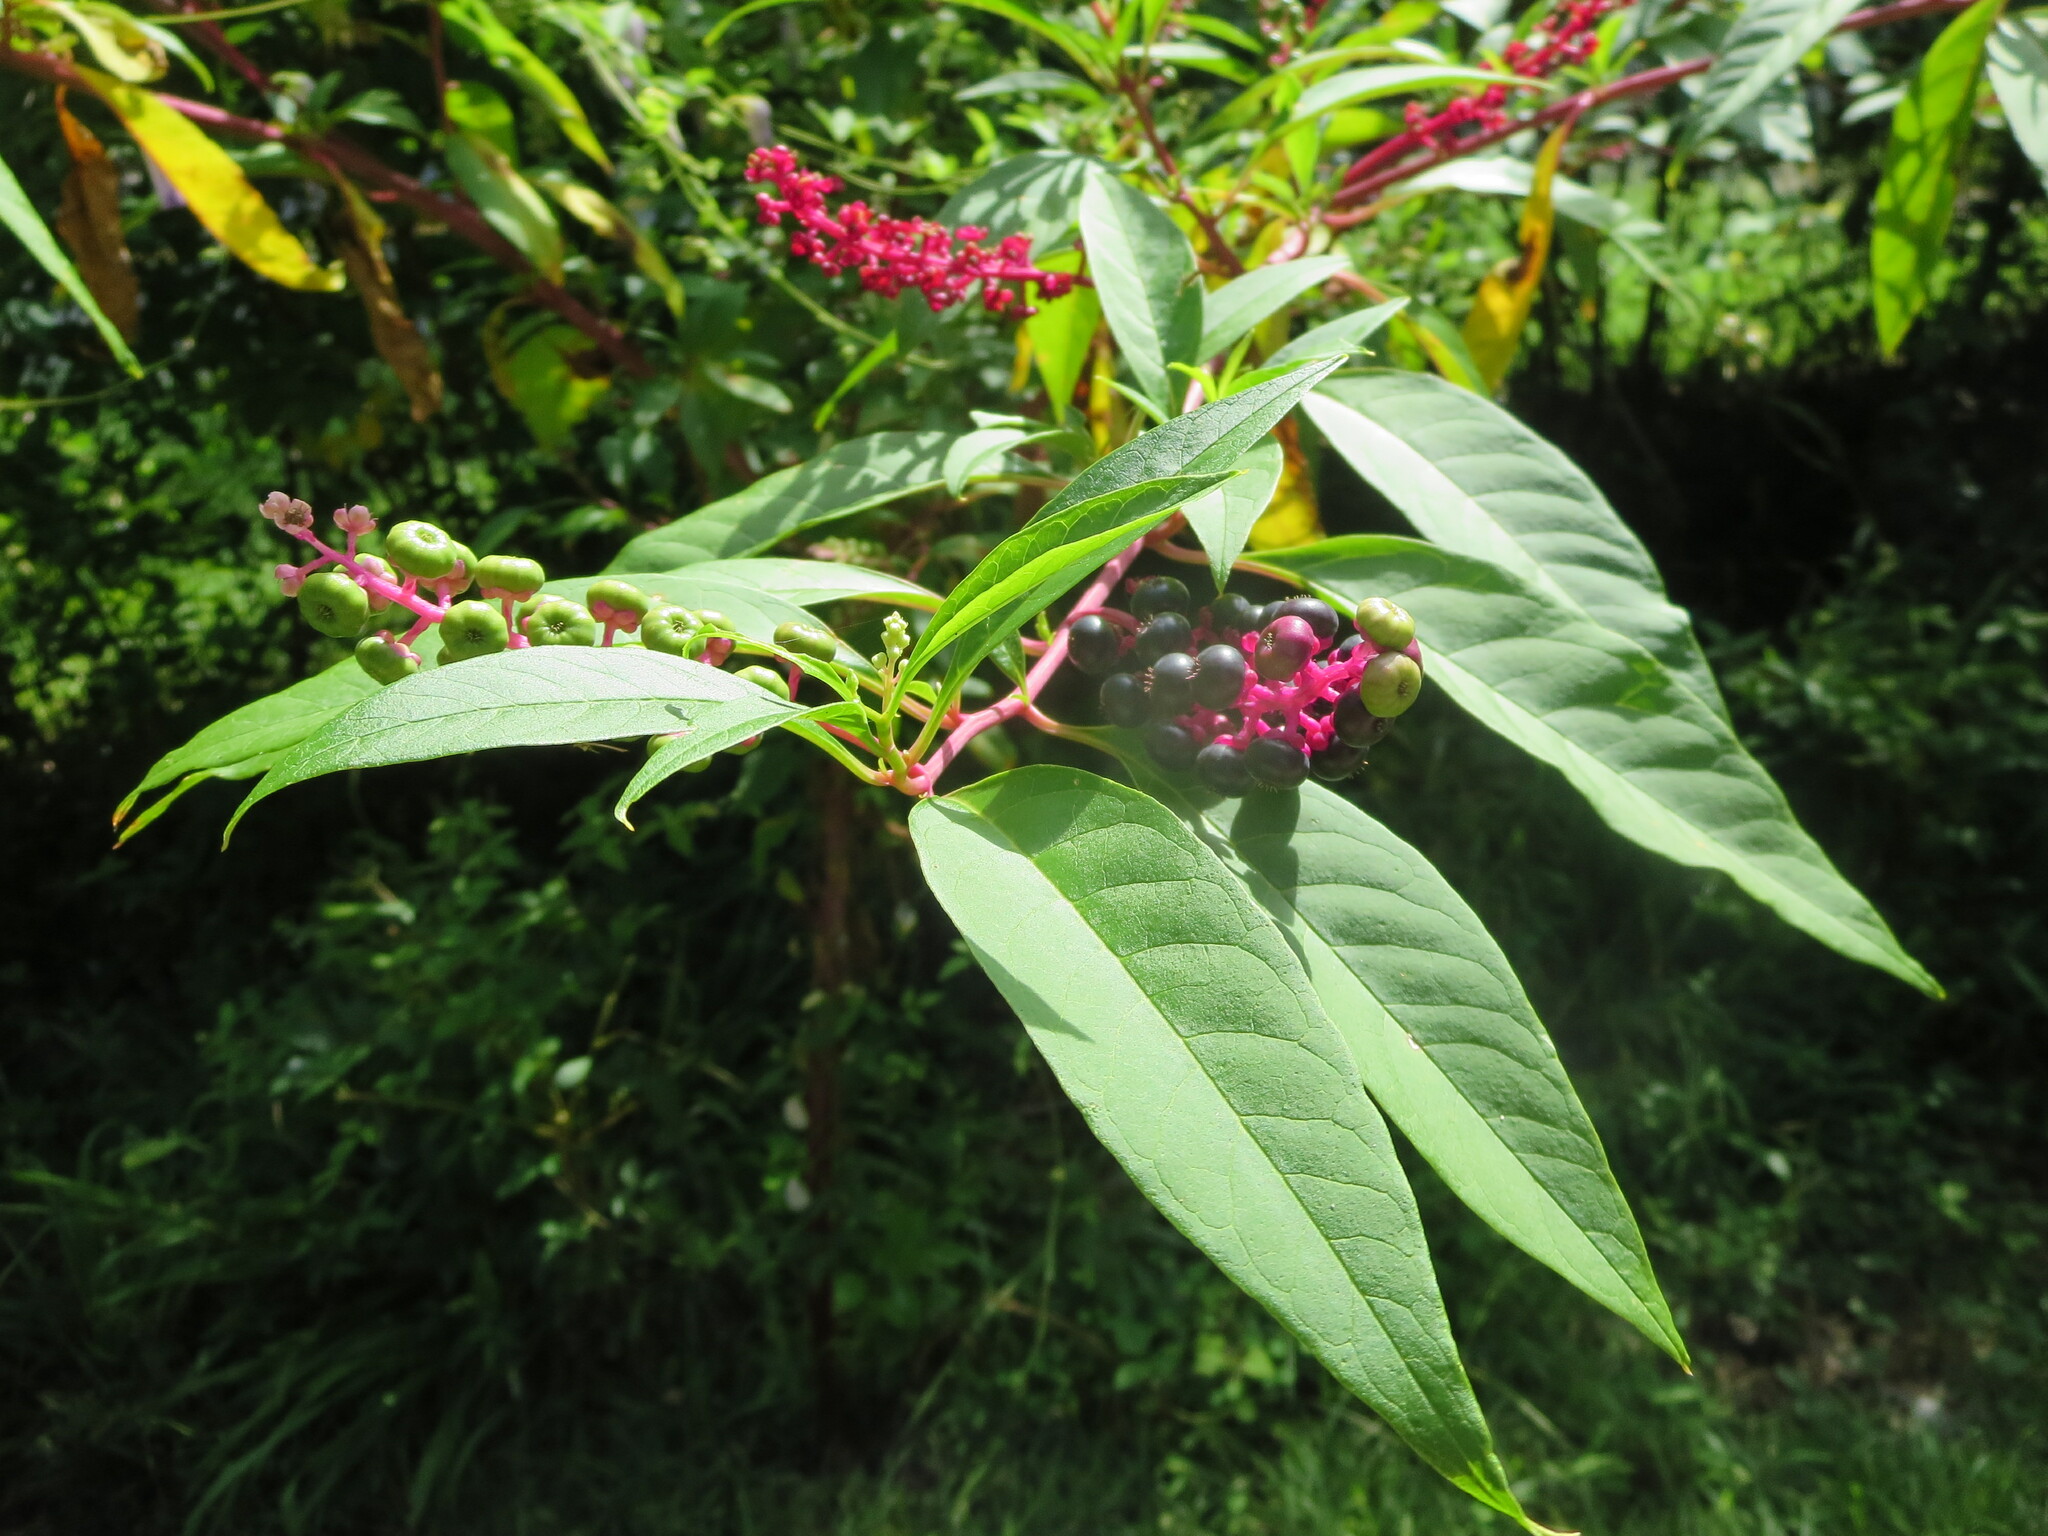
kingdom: Plantae
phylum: Tracheophyta
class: Magnoliopsida
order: Caryophyllales
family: Phytolaccaceae
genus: Phytolacca
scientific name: Phytolacca americana
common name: American pokeweed
